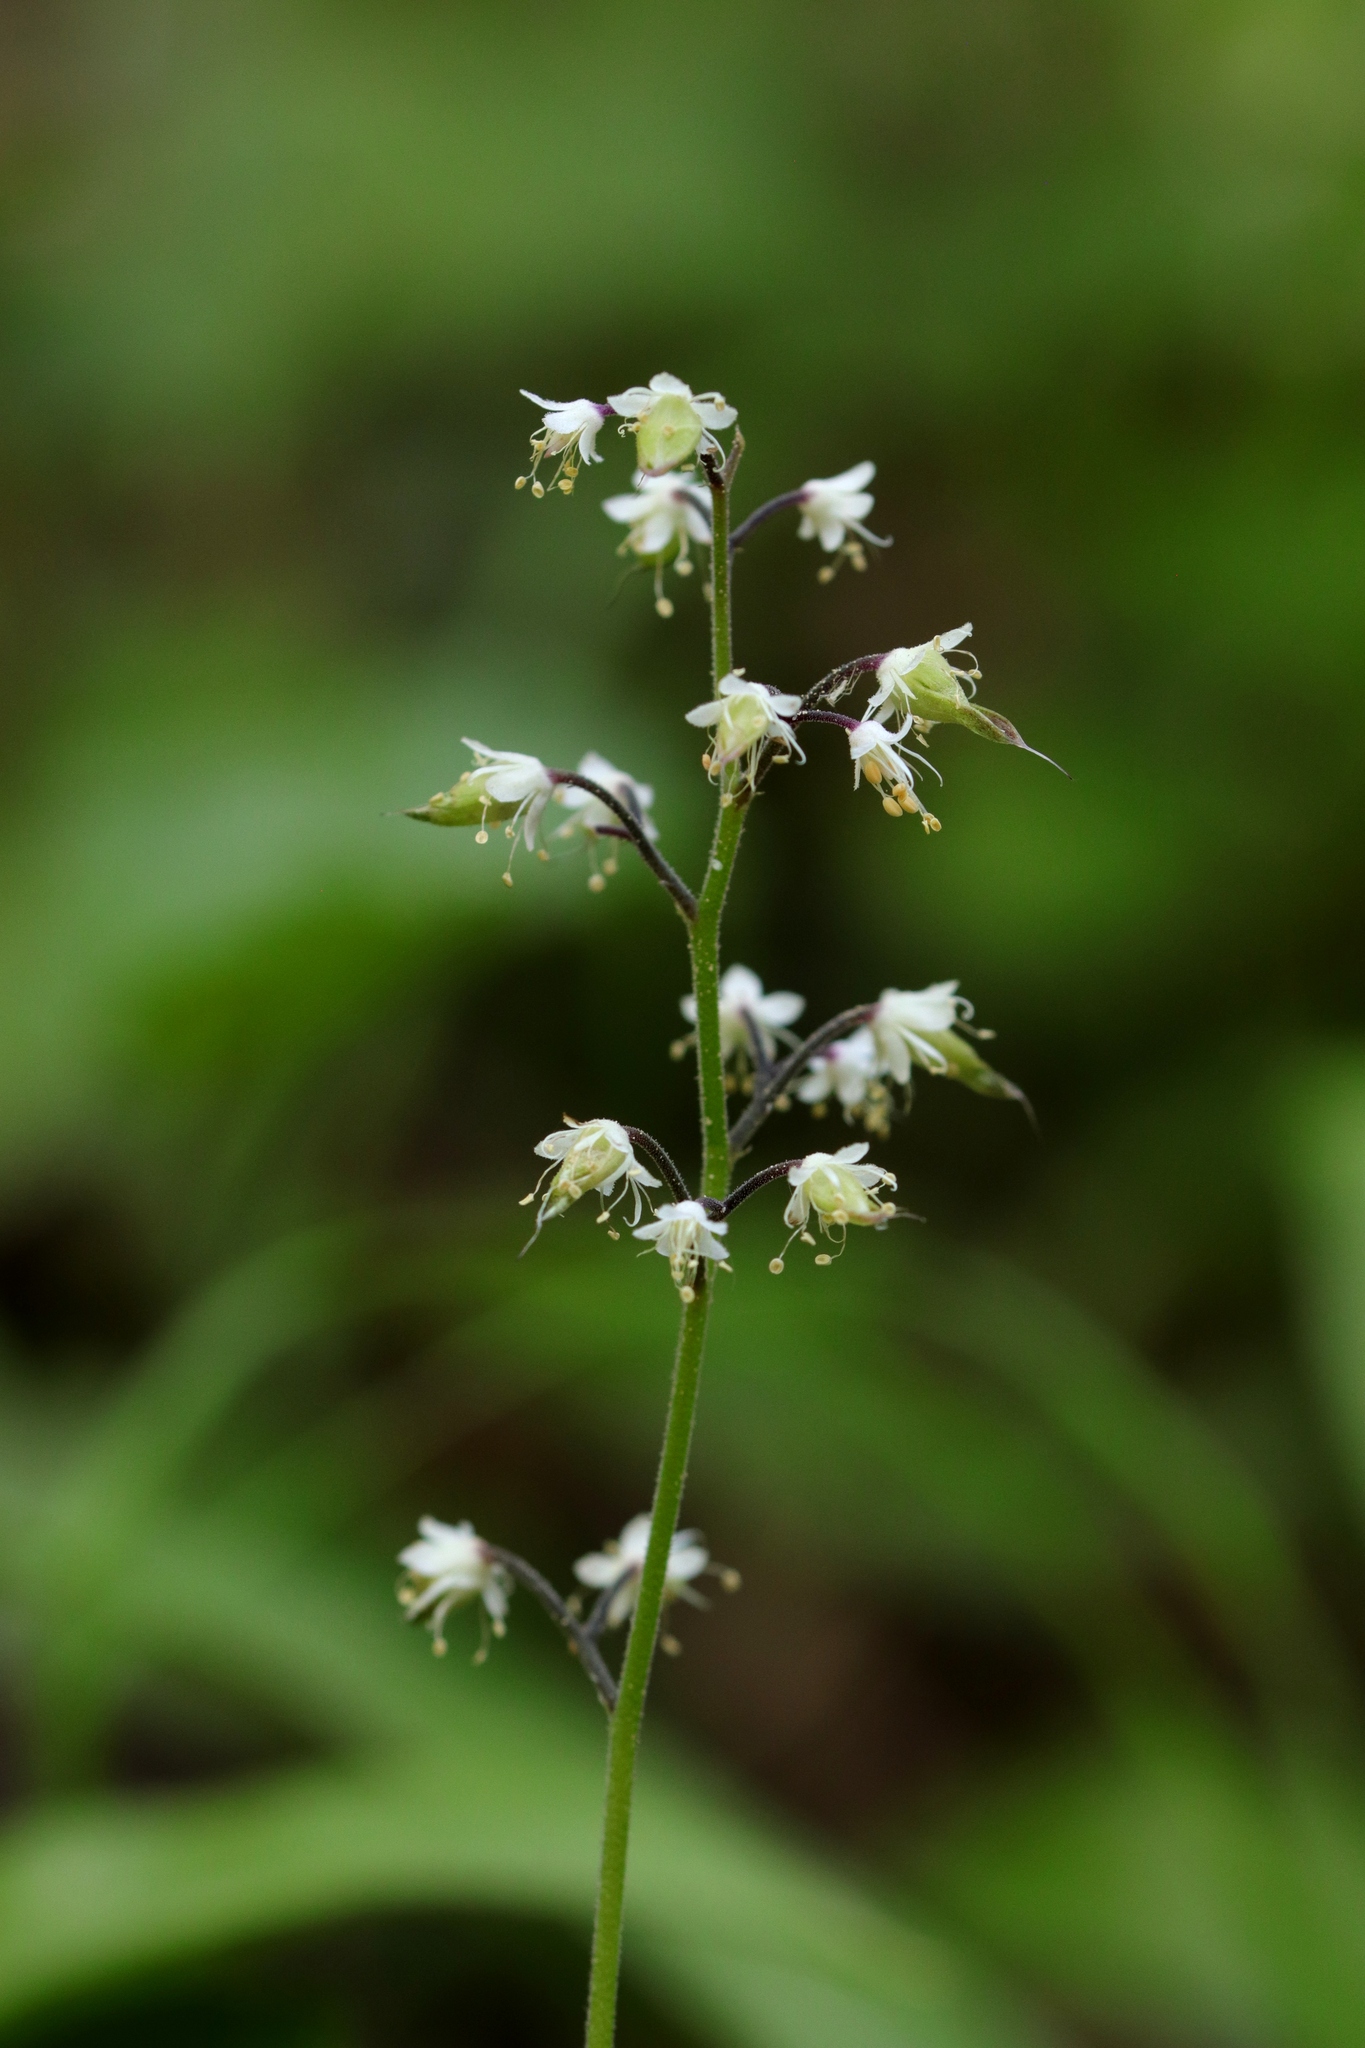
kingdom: Plantae
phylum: Tracheophyta
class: Magnoliopsida
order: Saxifragales
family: Saxifragaceae
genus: Tiarella
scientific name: Tiarella trifoliata
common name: Sugar-scoop
